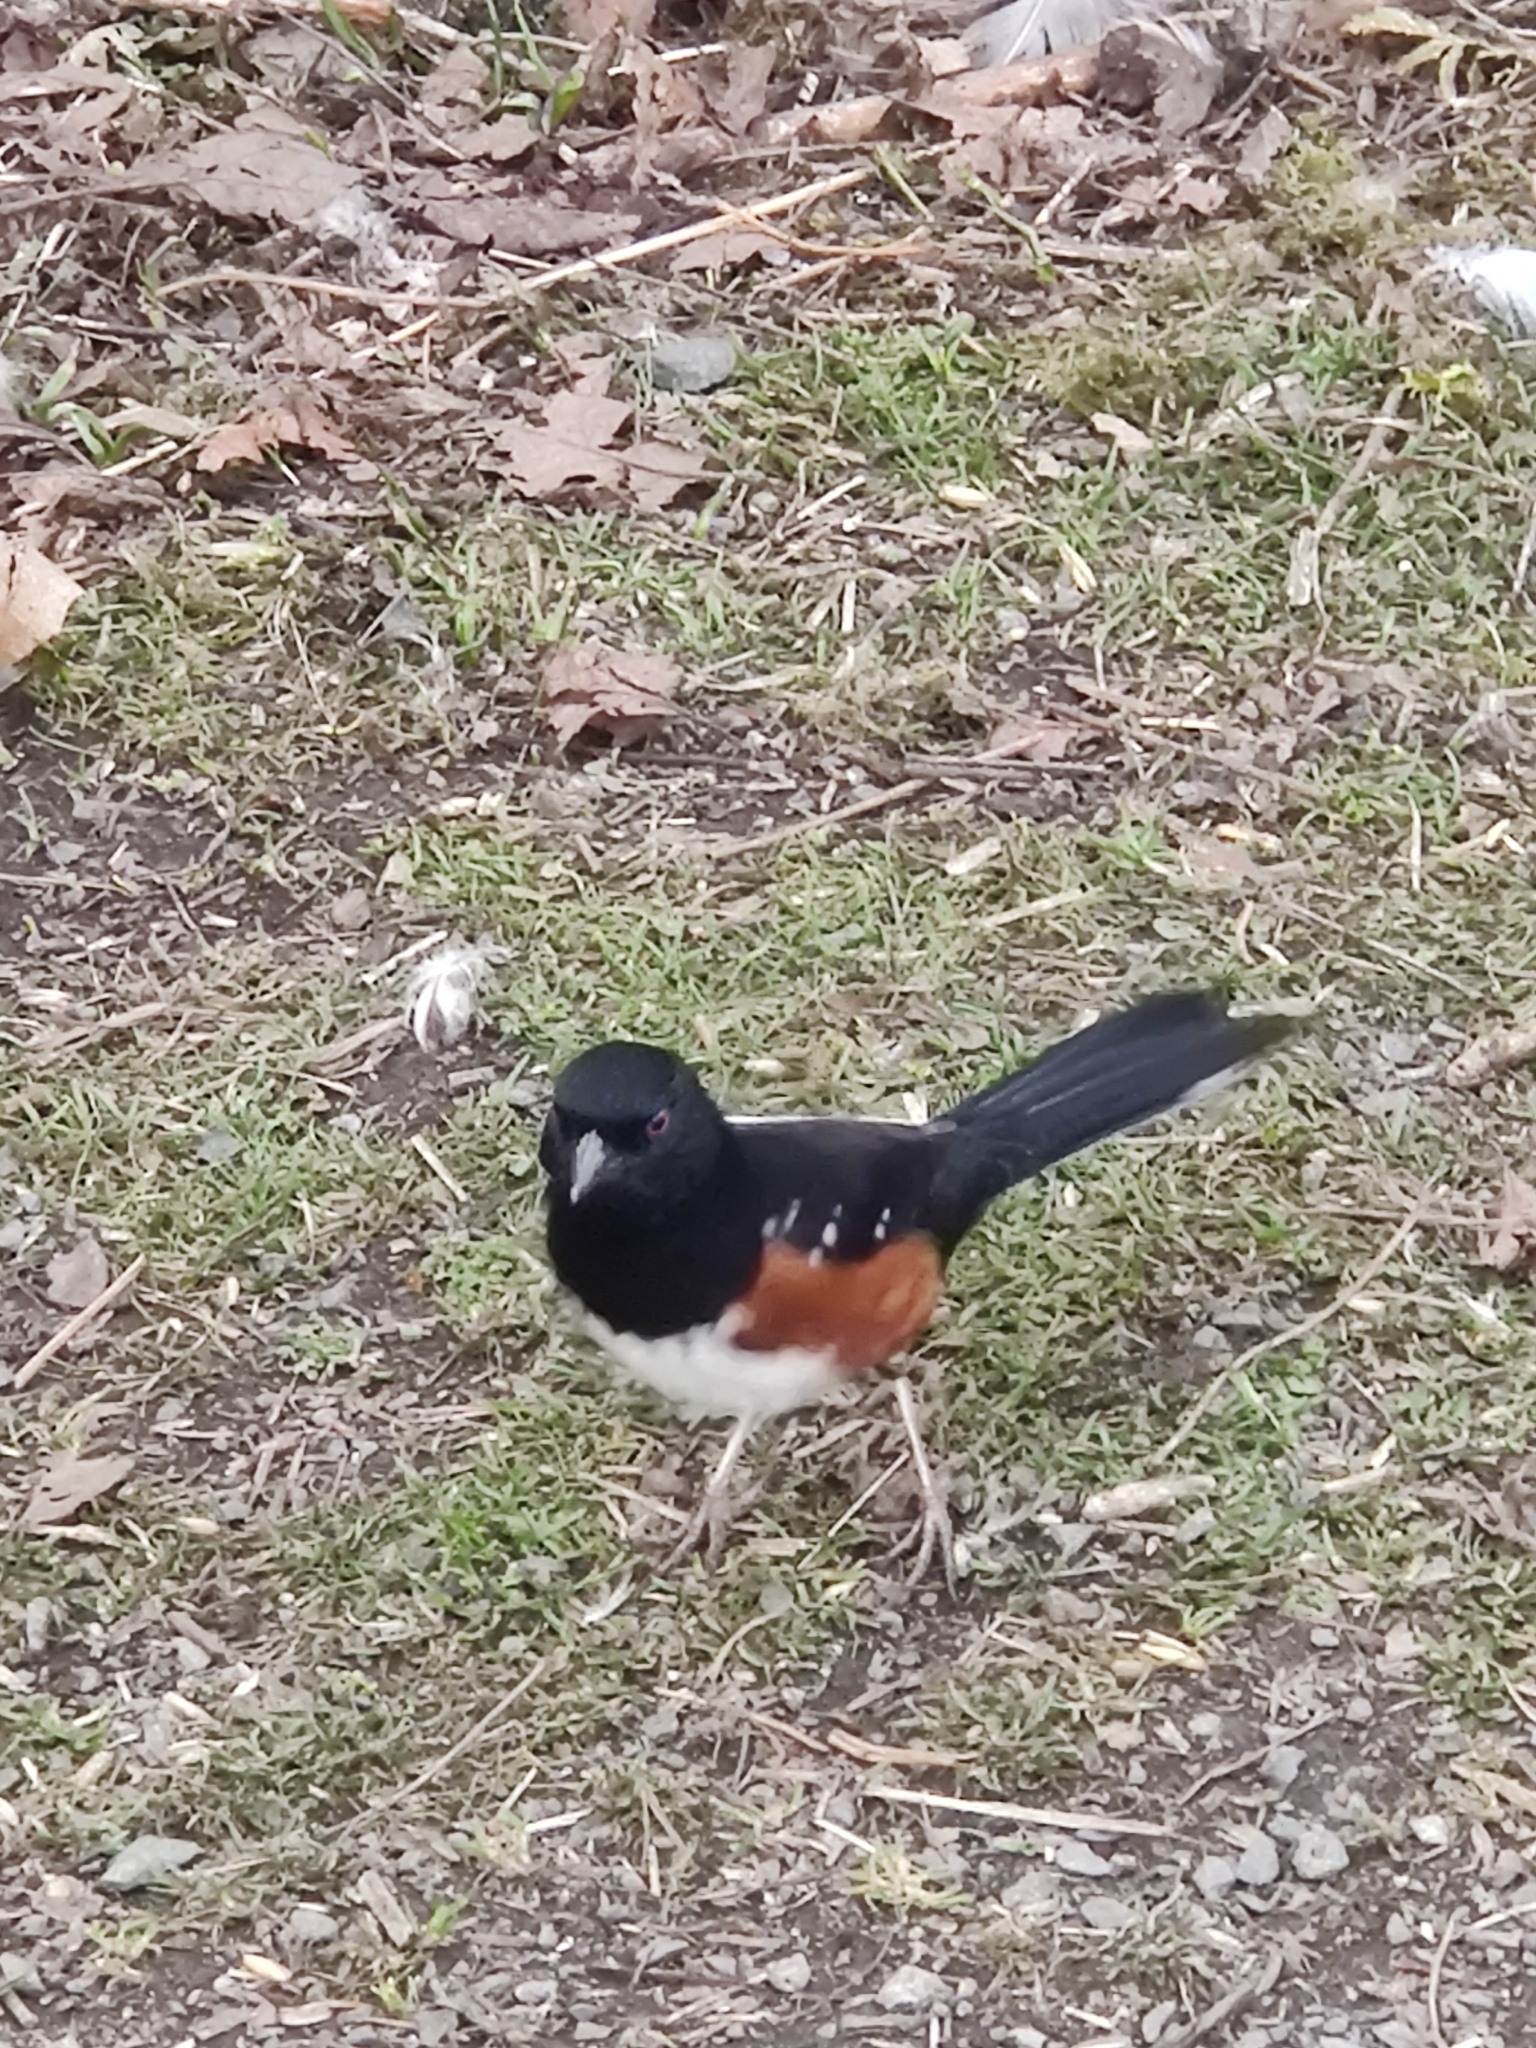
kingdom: Animalia
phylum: Chordata
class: Aves
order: Passeriformes
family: Passerellidae
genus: Pipilo
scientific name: Pipilo maculatus
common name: Spotted towhee
